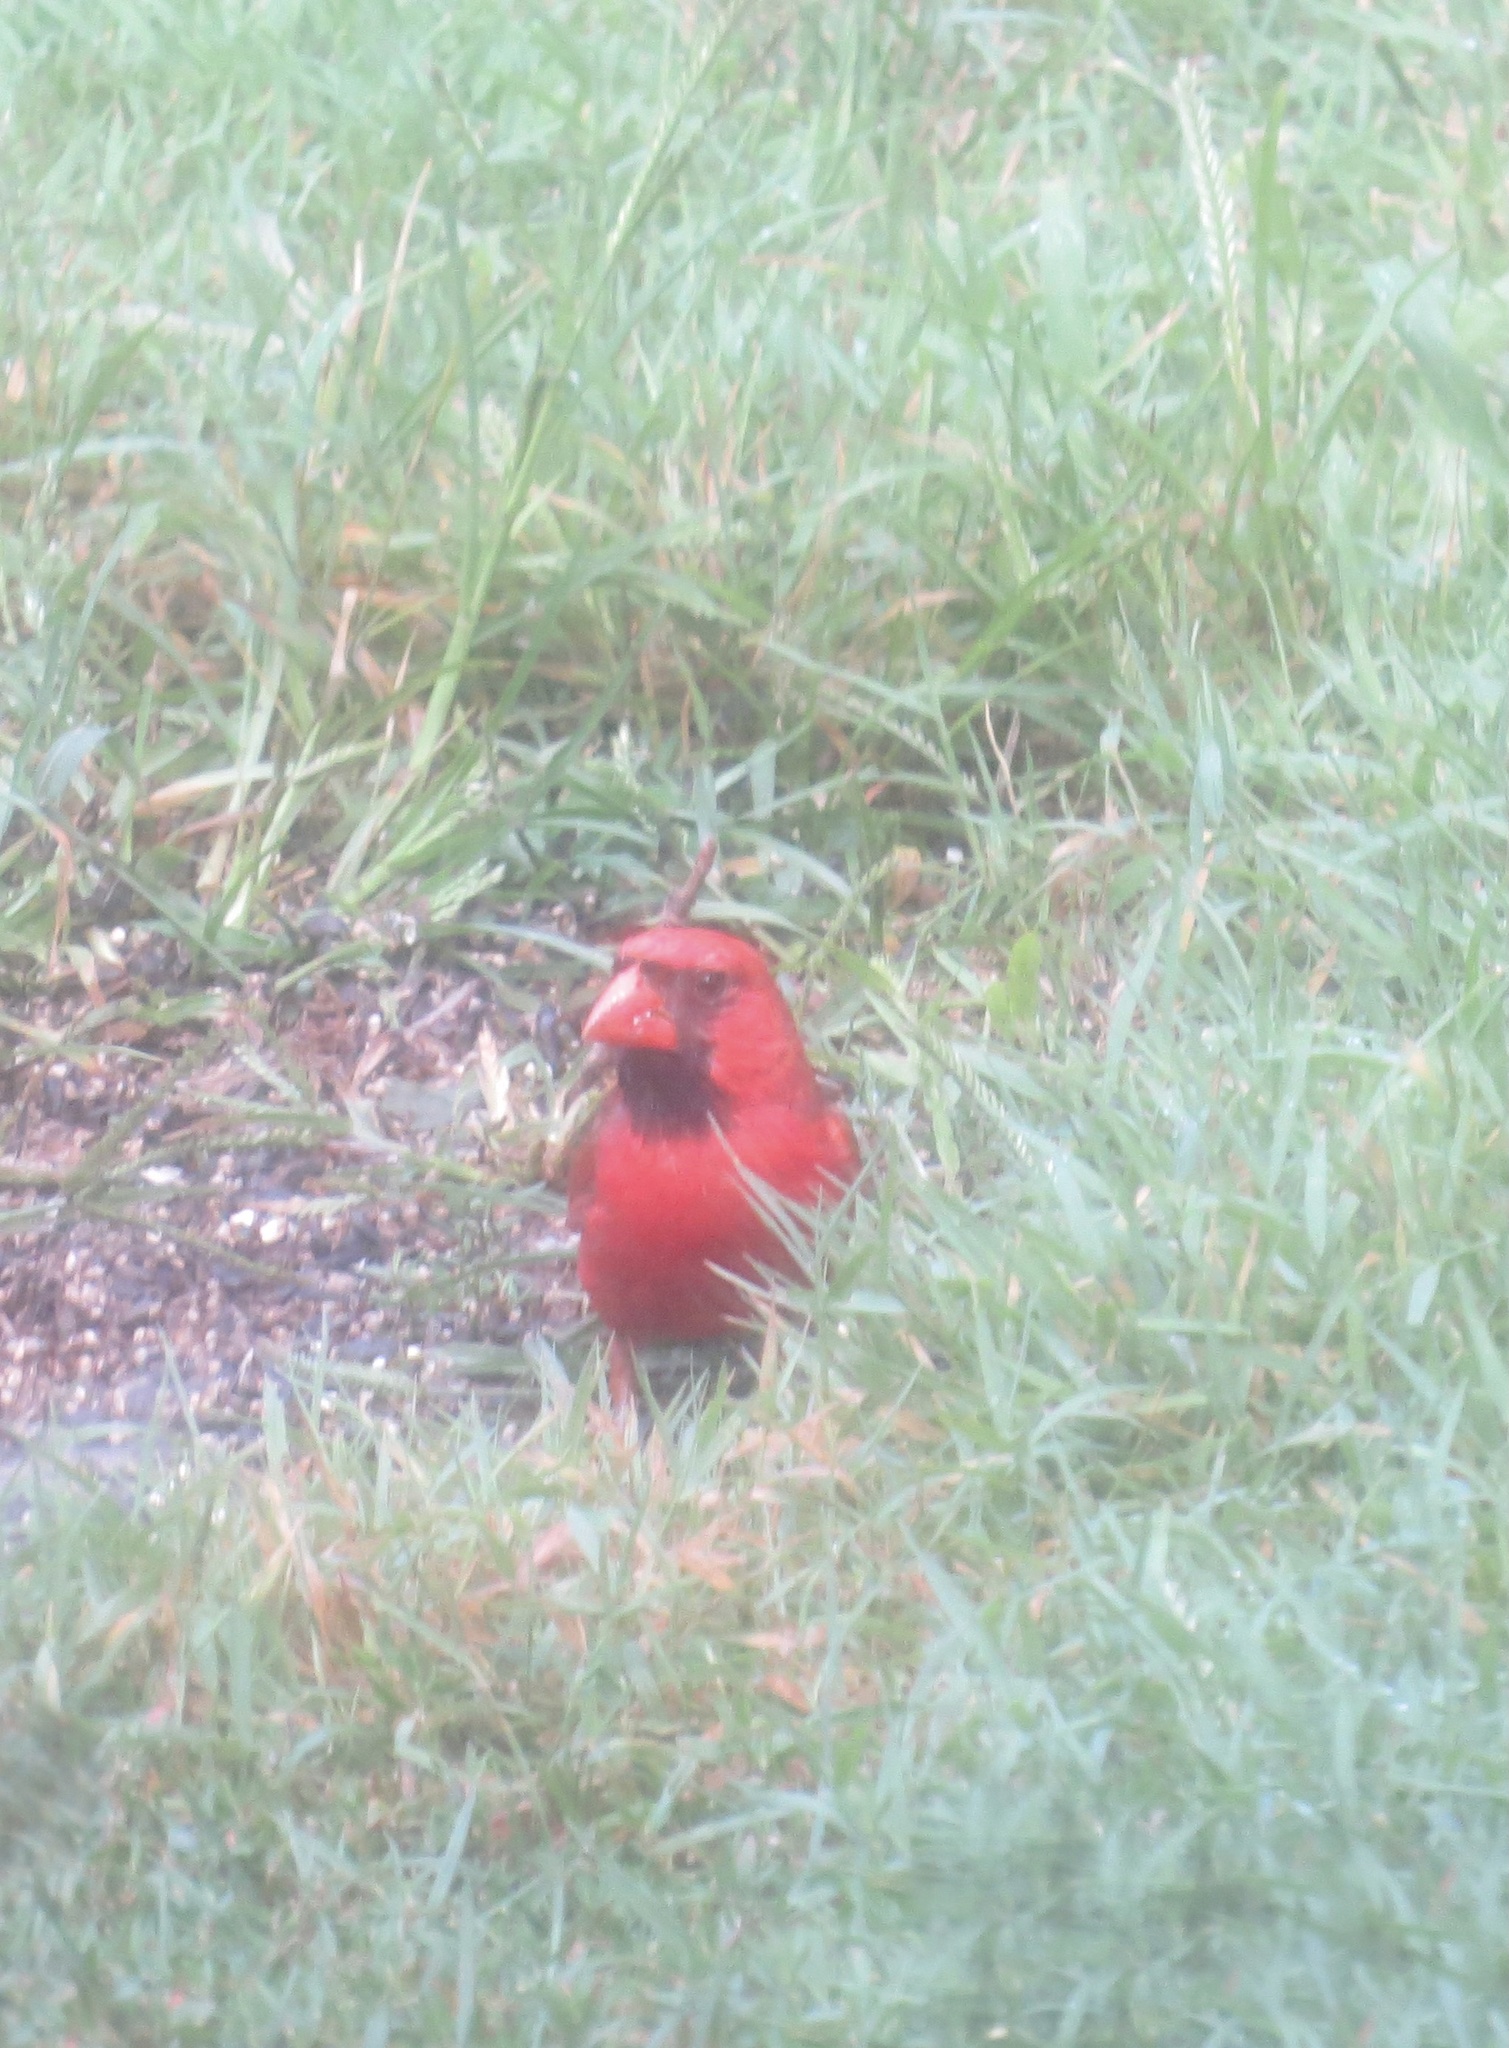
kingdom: Animalia
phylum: Chordata
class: Aves
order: Passeriformes
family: Cardinalidae
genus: Cardinalis
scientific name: Cardinalis cardinalis
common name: Northern cardinal
